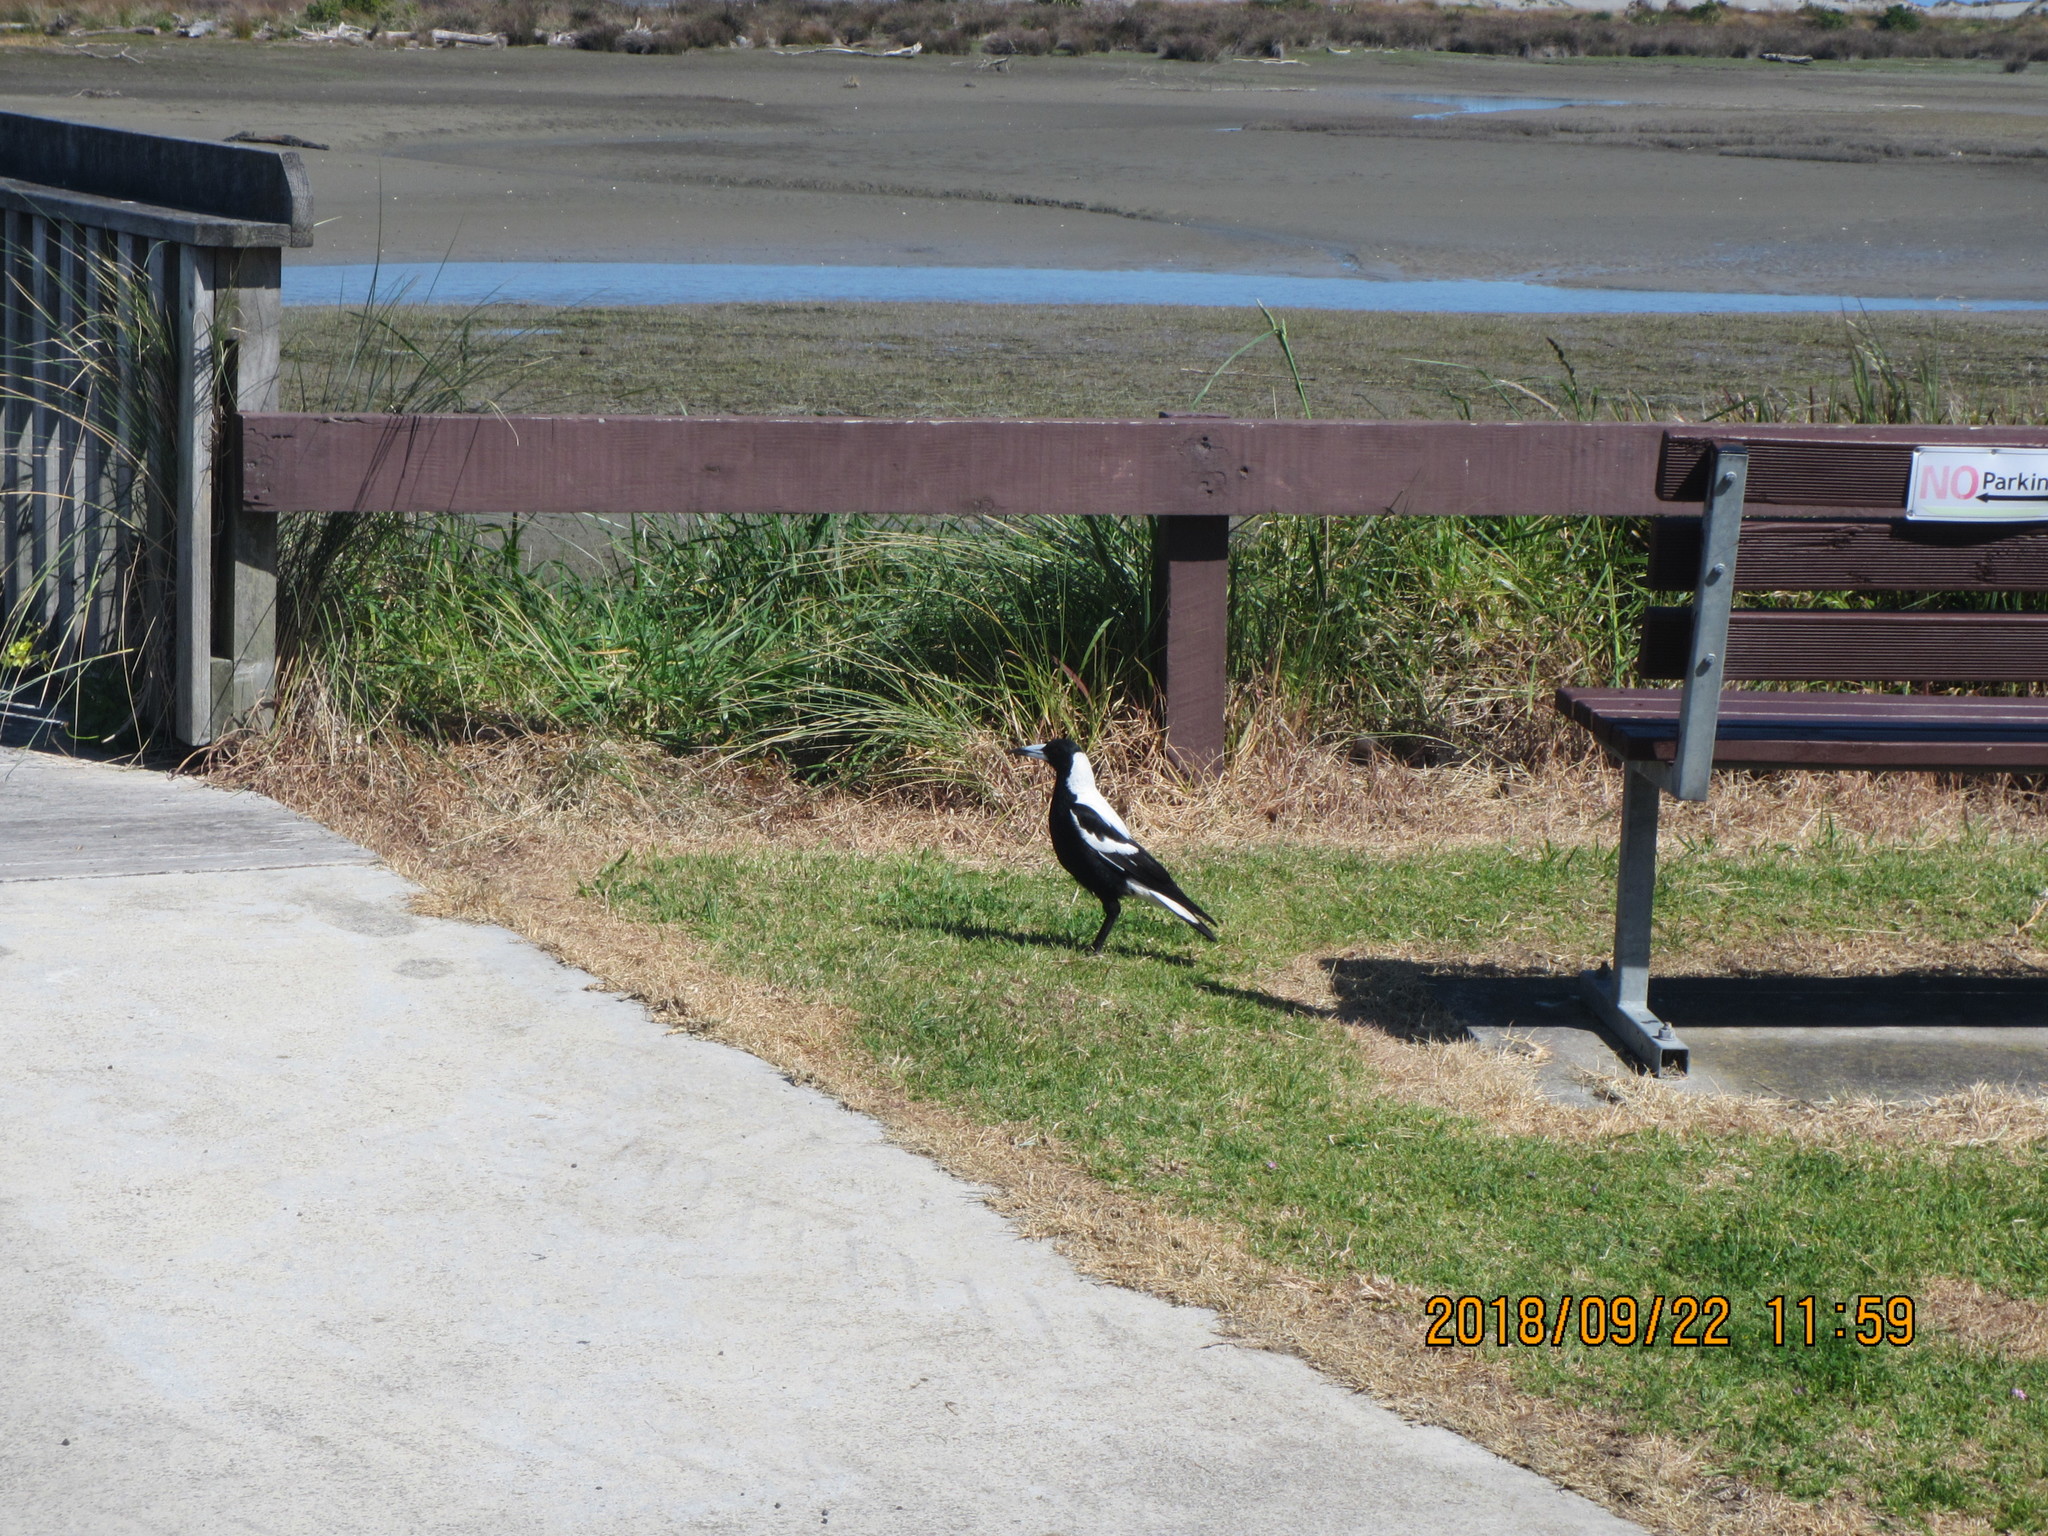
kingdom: Animalia
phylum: Chordata
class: Aves
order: Passeriformes
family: Cracticidae
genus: Gymnorhina
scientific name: Gymnorhina tibicen
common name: Australian magpie
